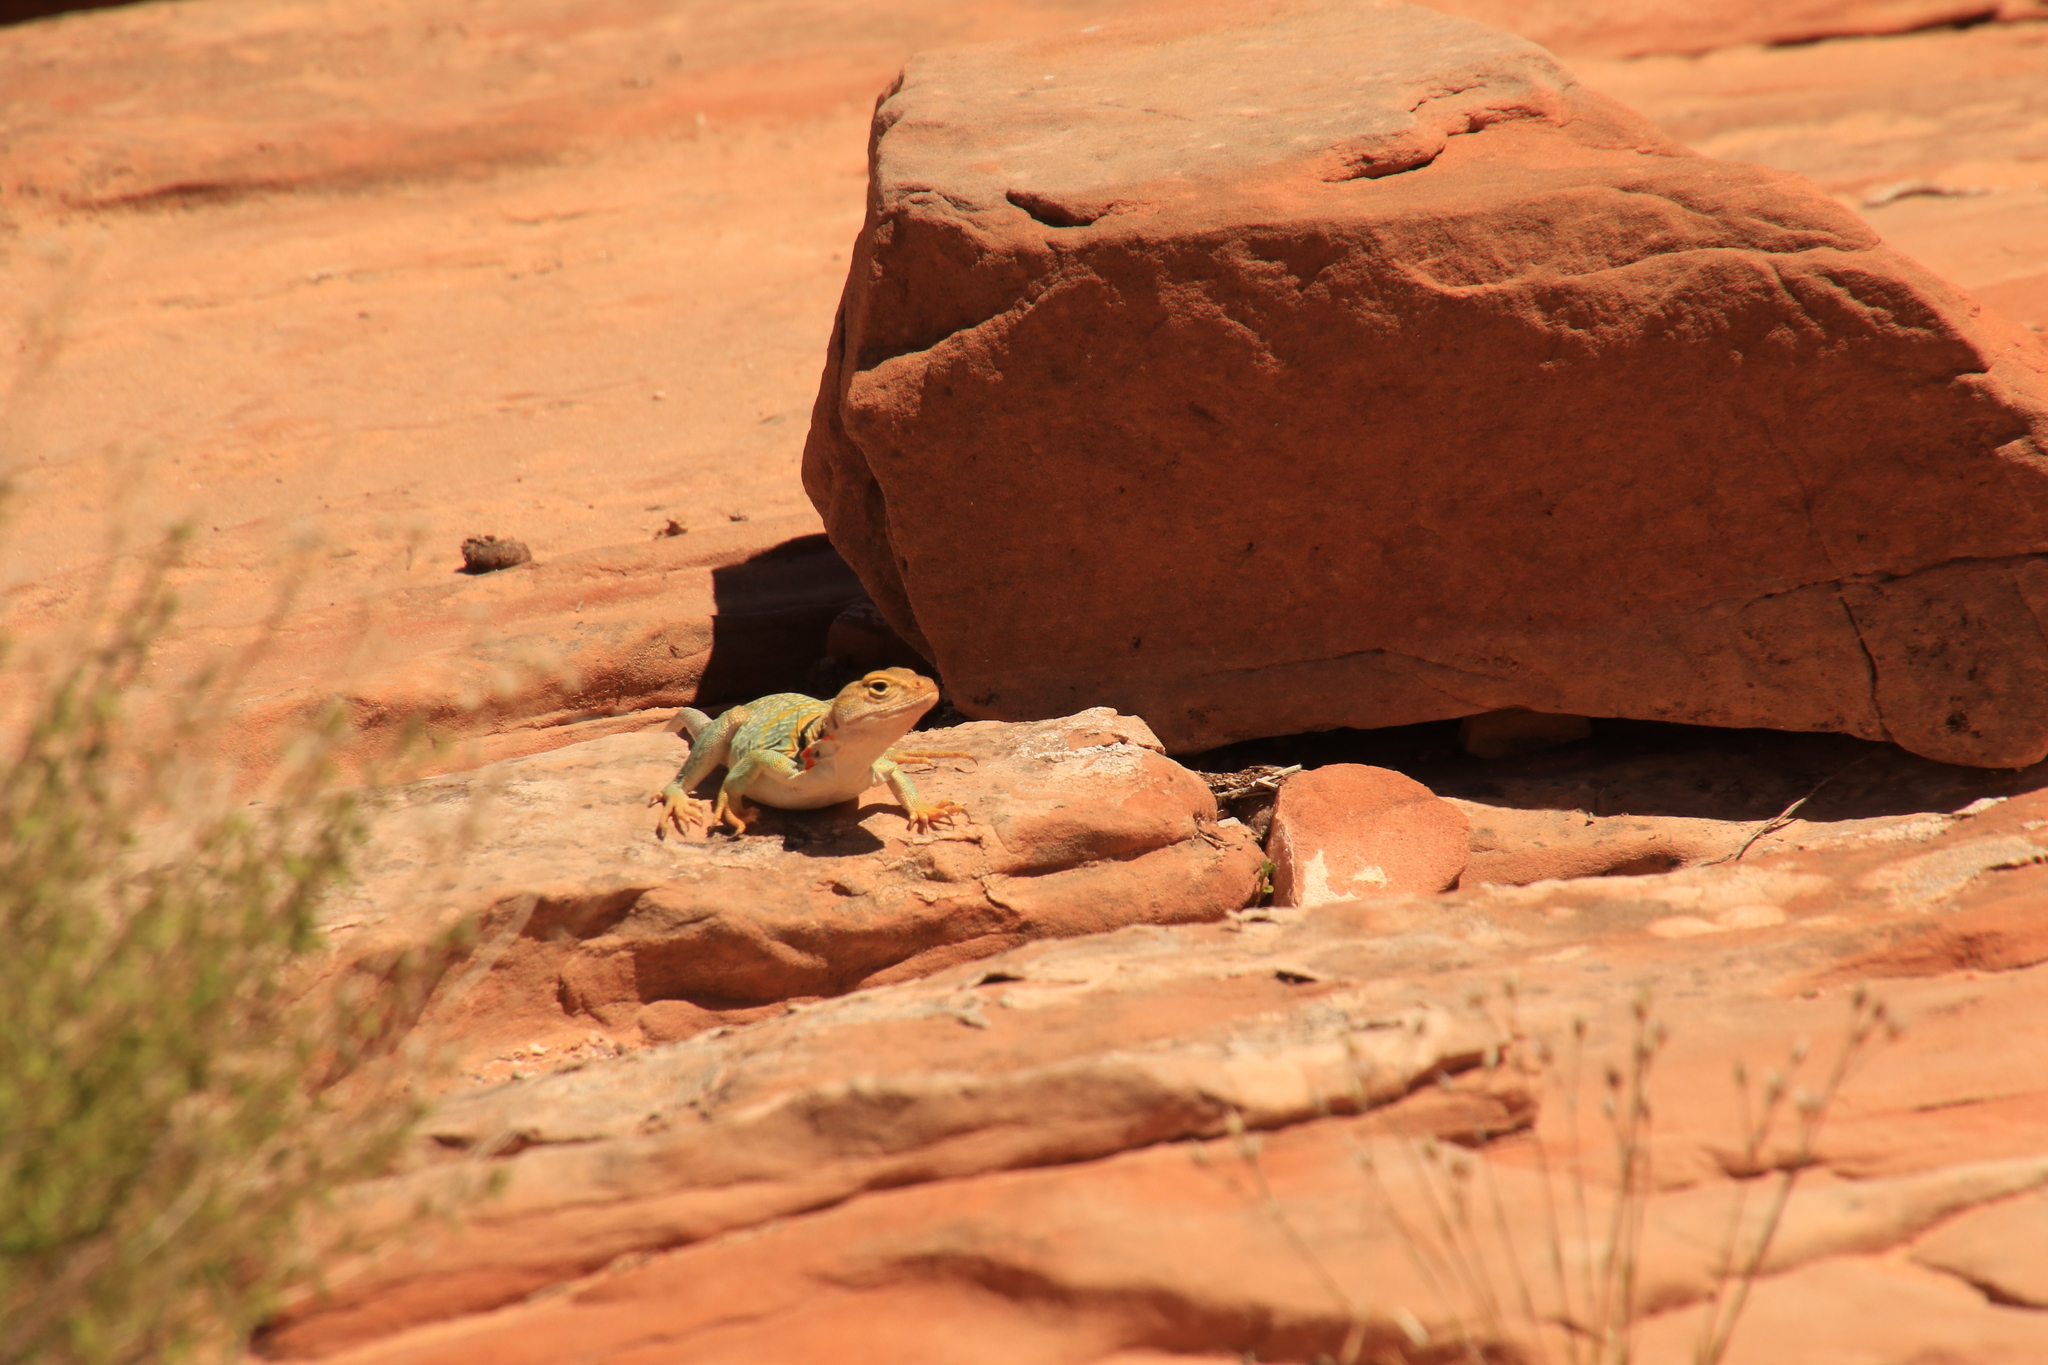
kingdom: Animalia
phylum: Chordata
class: Squamata
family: Crotaphytidae
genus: Crotaphytus
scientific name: Crotaphytus collaris
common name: Collared lizard
